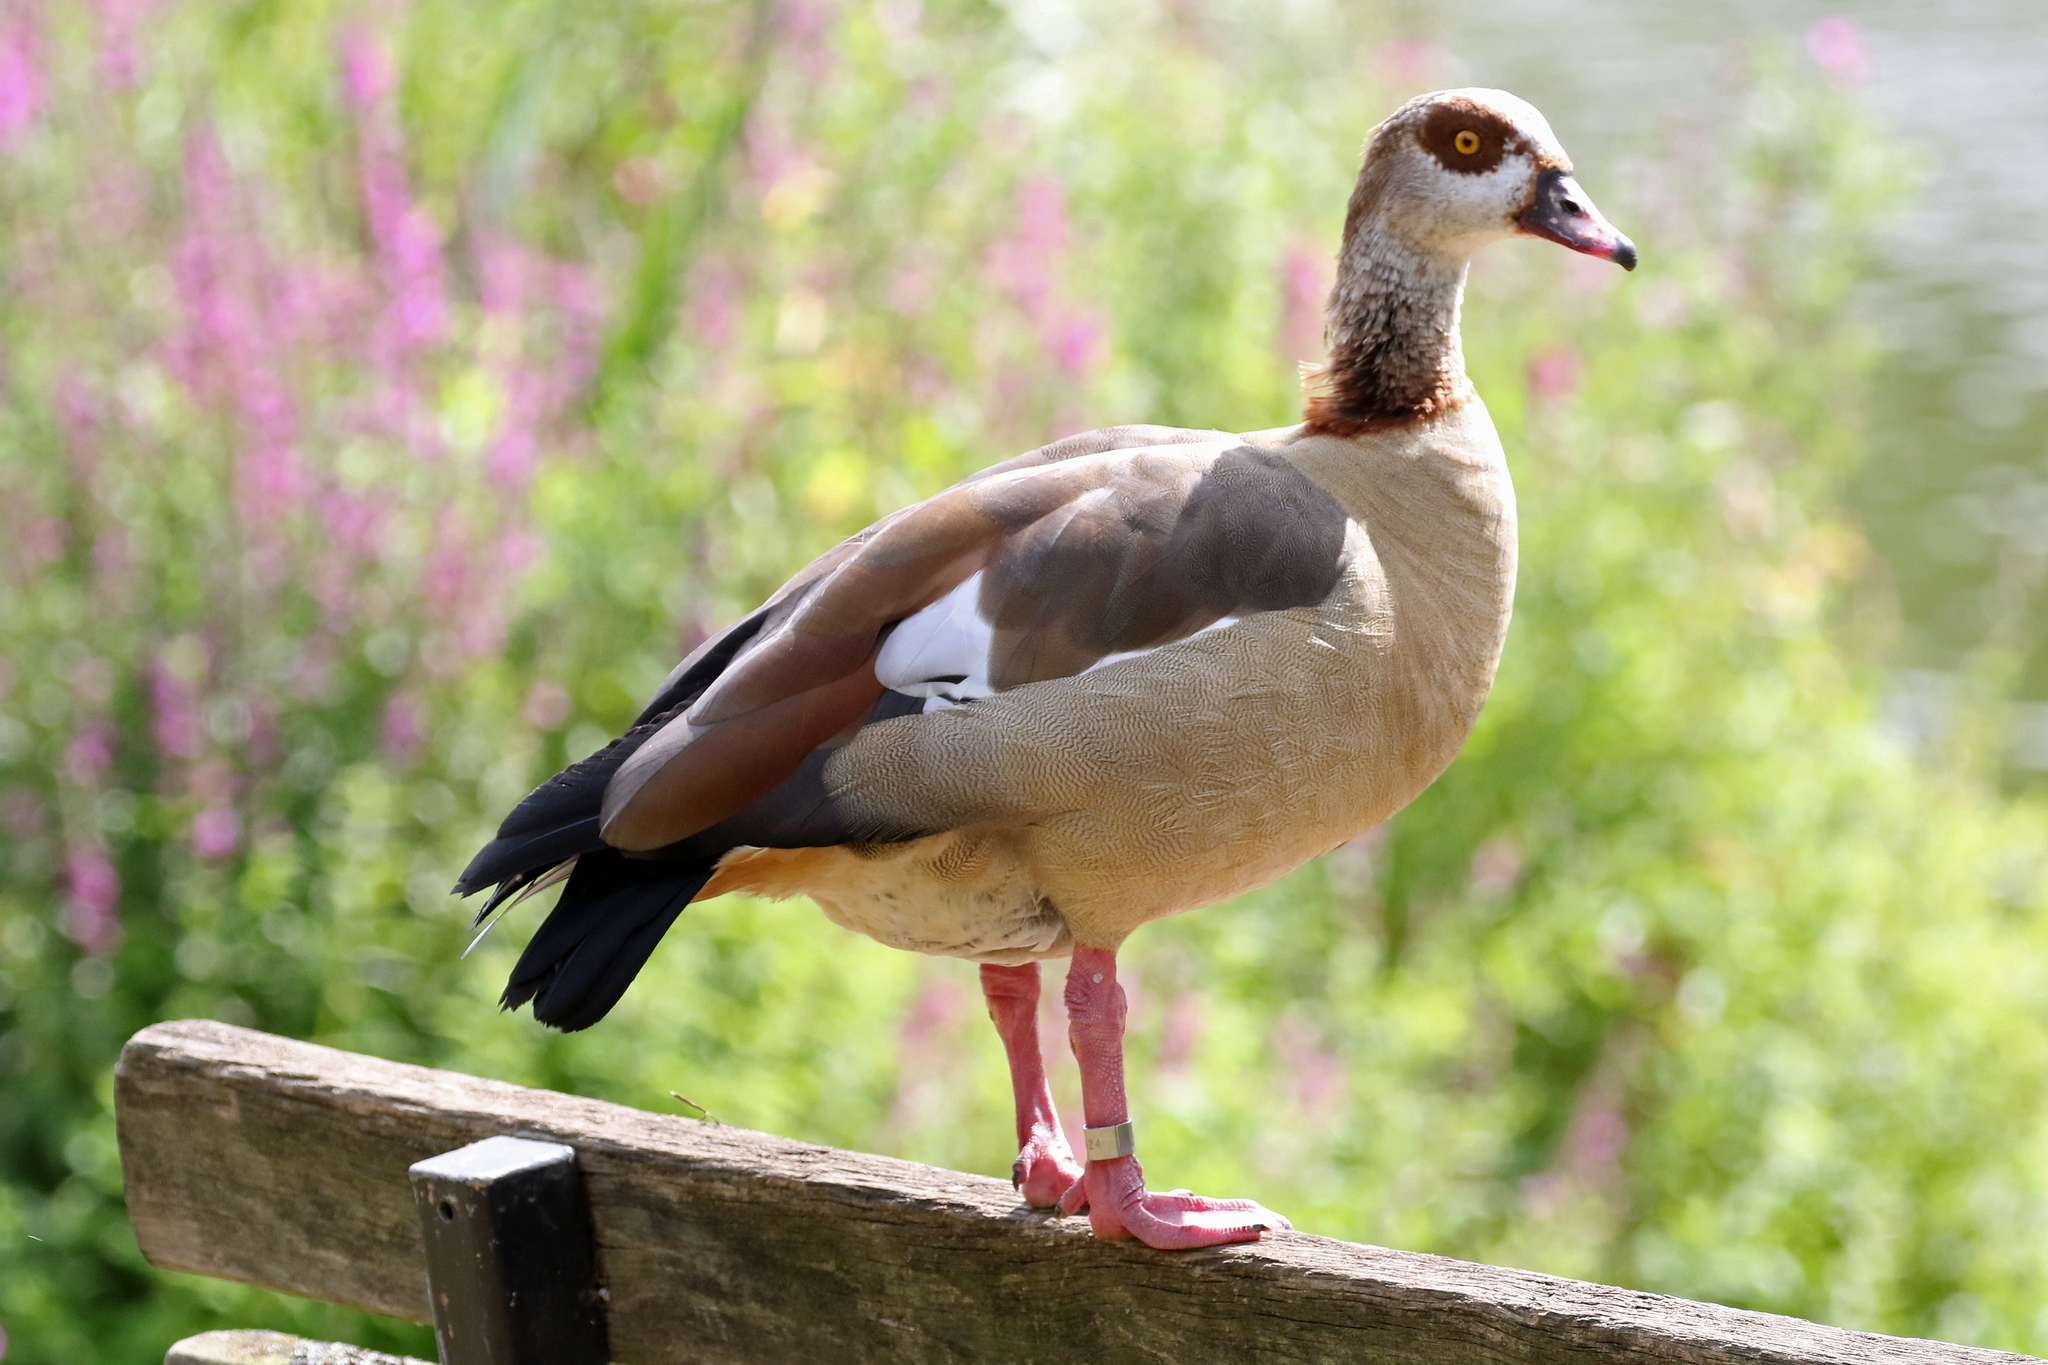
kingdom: Animalia
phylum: Chordata
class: Aves
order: Anseriformes
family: Anatidae
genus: Alopochen
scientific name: Alopochen aegyptiaca
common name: Egyptian goose
